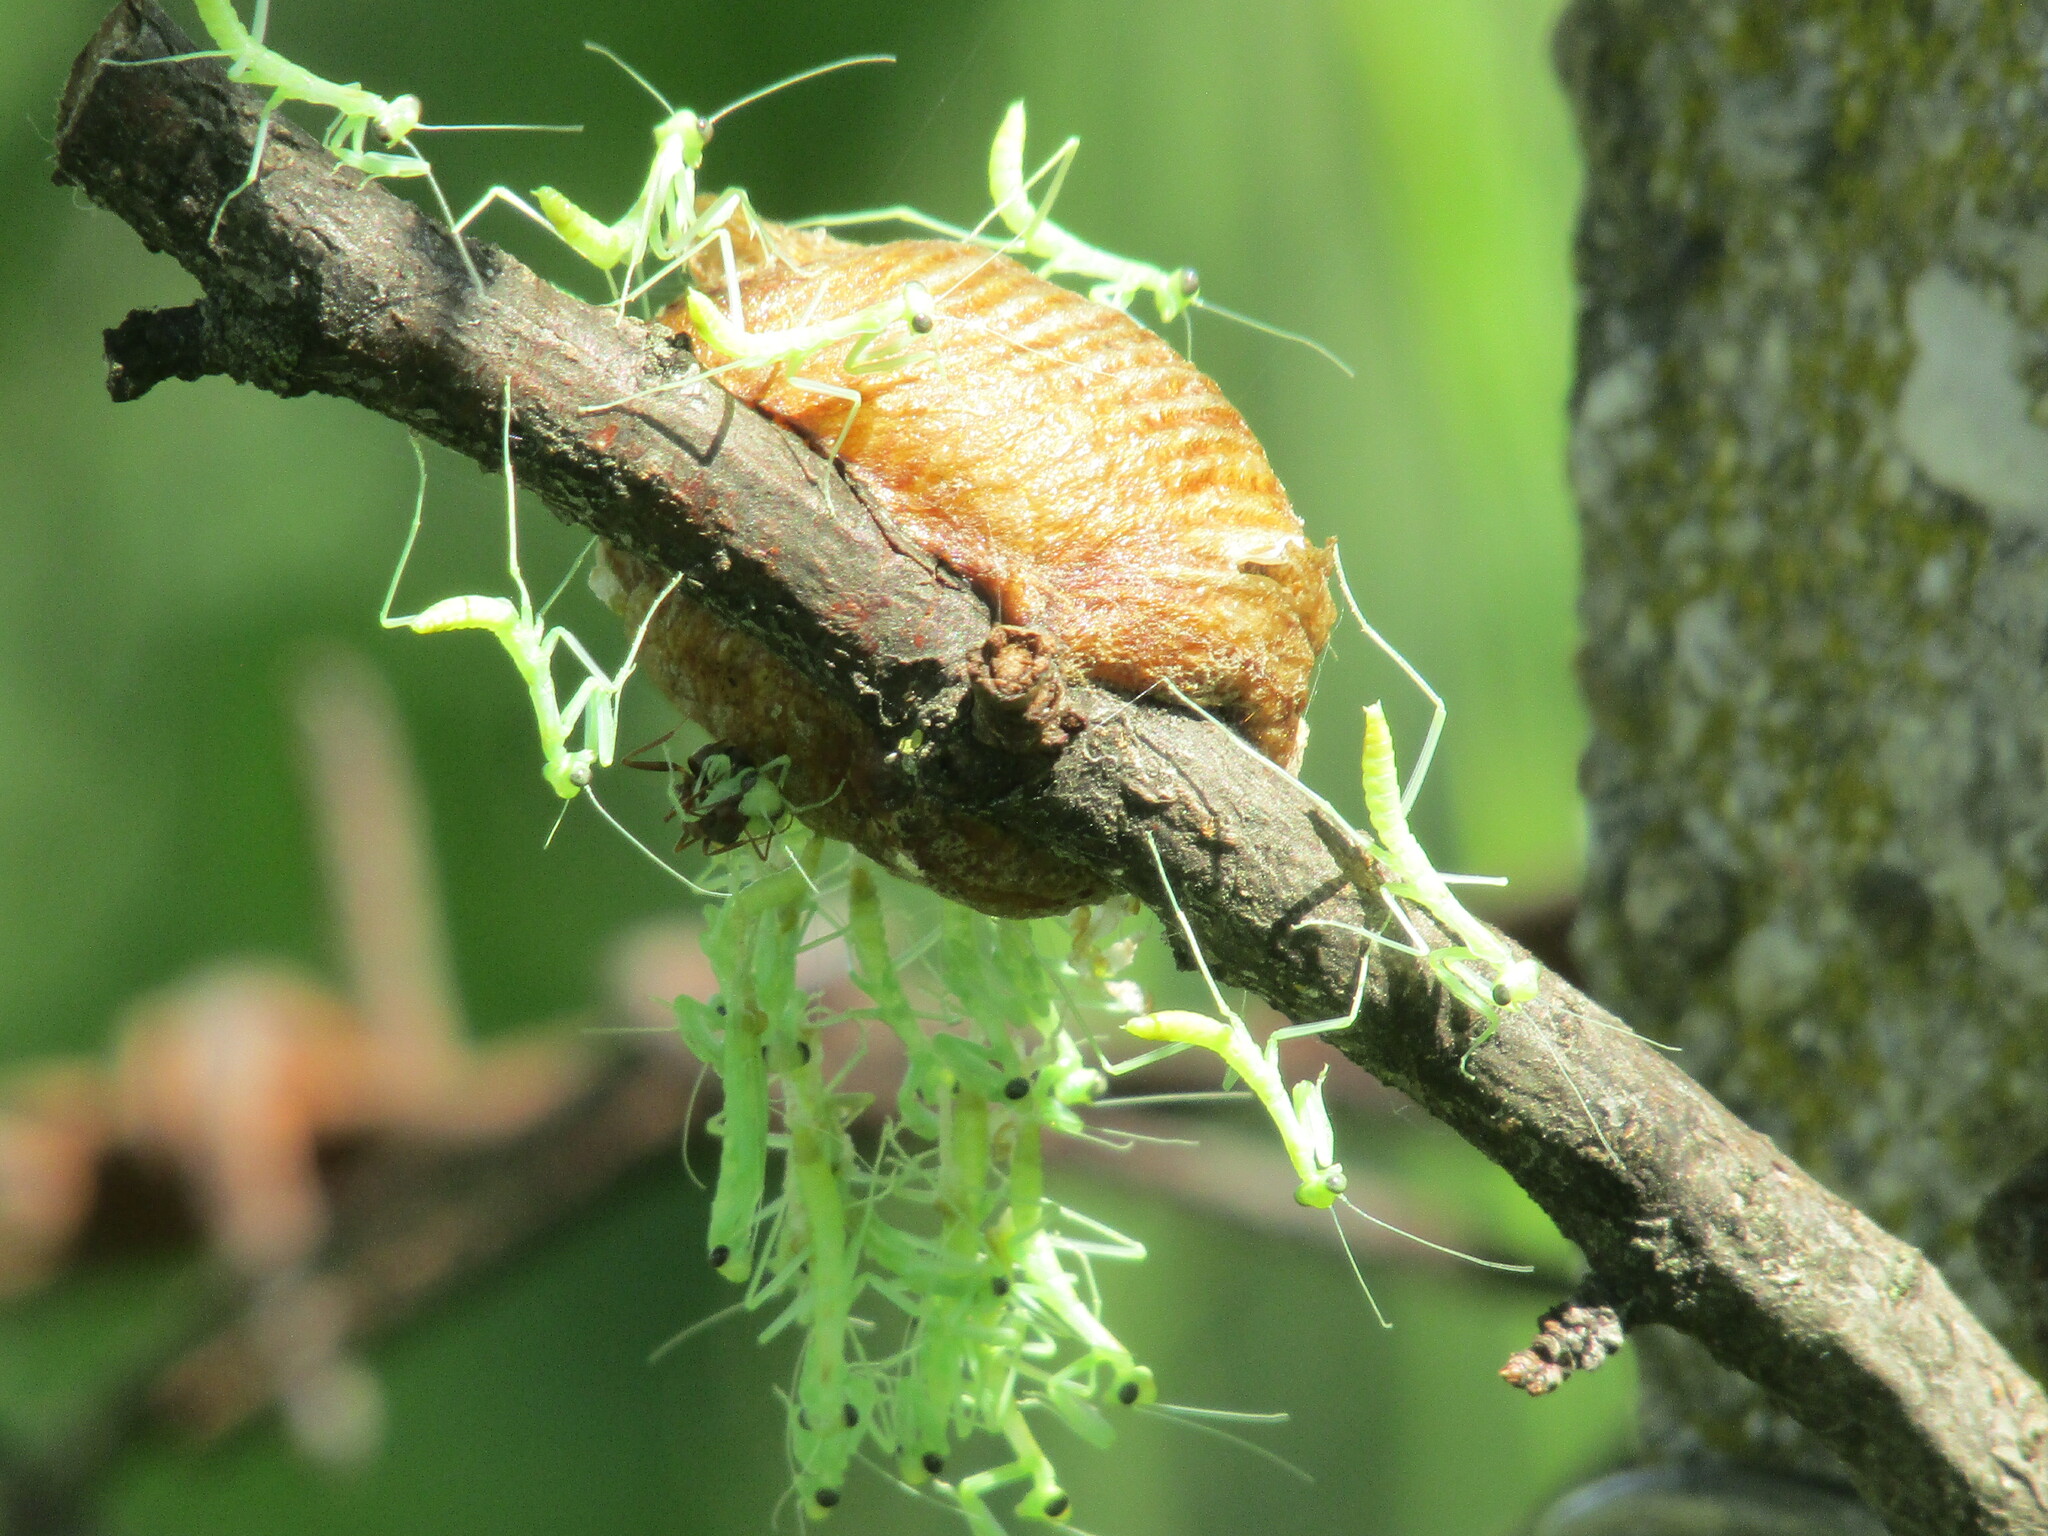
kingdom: Animalia
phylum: Arthropoda
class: Insecta
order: Mantodea
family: Mantidae
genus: Hierodula
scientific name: Hierodula transcaucasica
